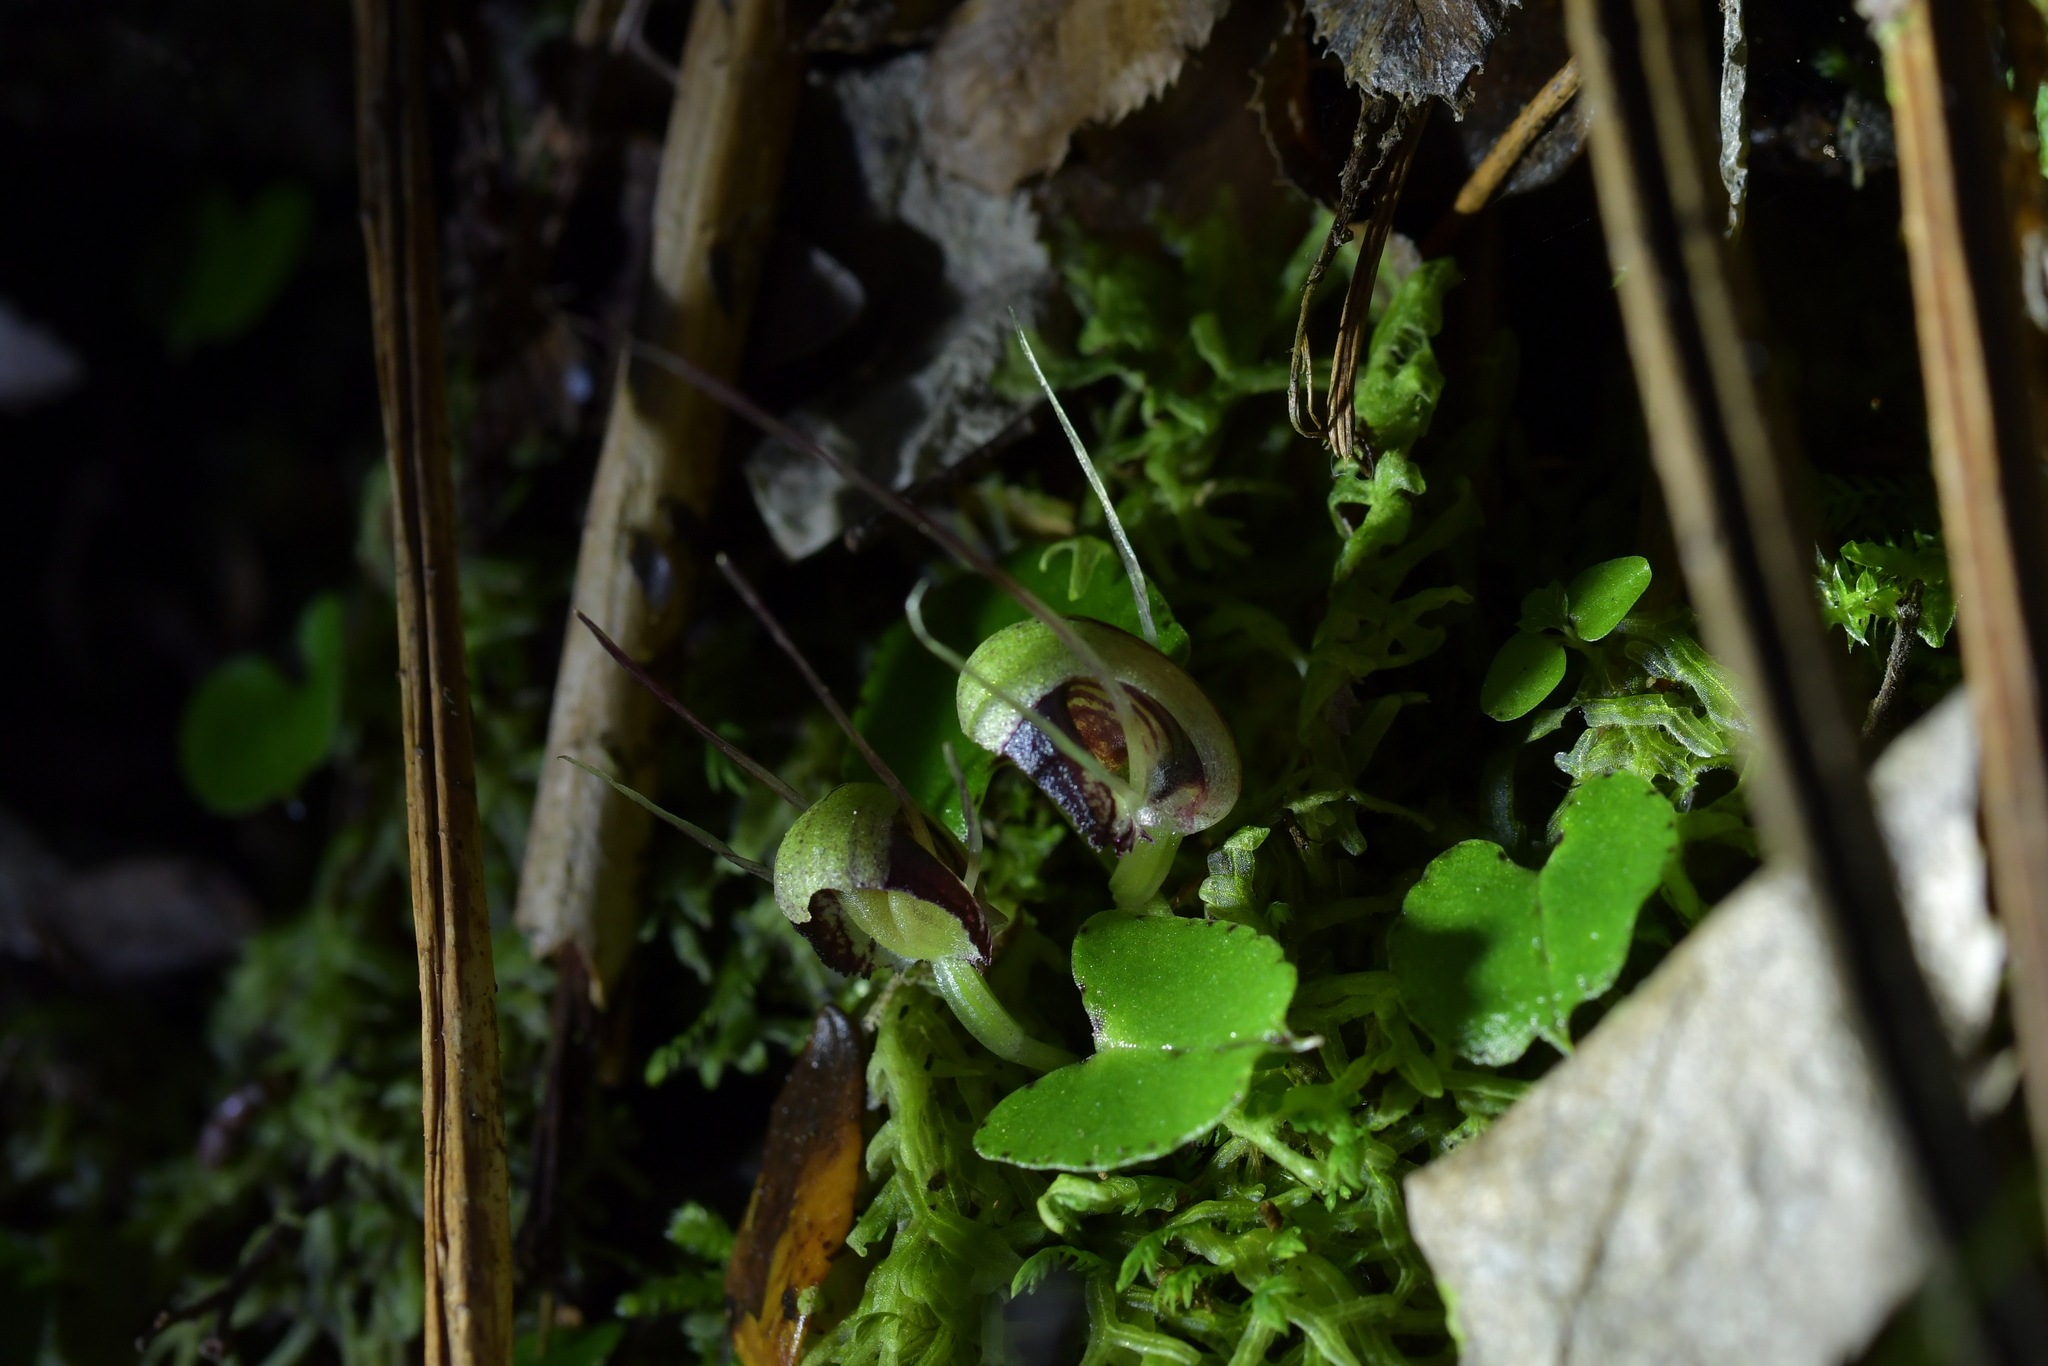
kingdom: Plantae
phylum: Tracheophyta
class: Liliopsida
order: Asparagales
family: Orchidaceae
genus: Corybas
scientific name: Corybas trilobus
